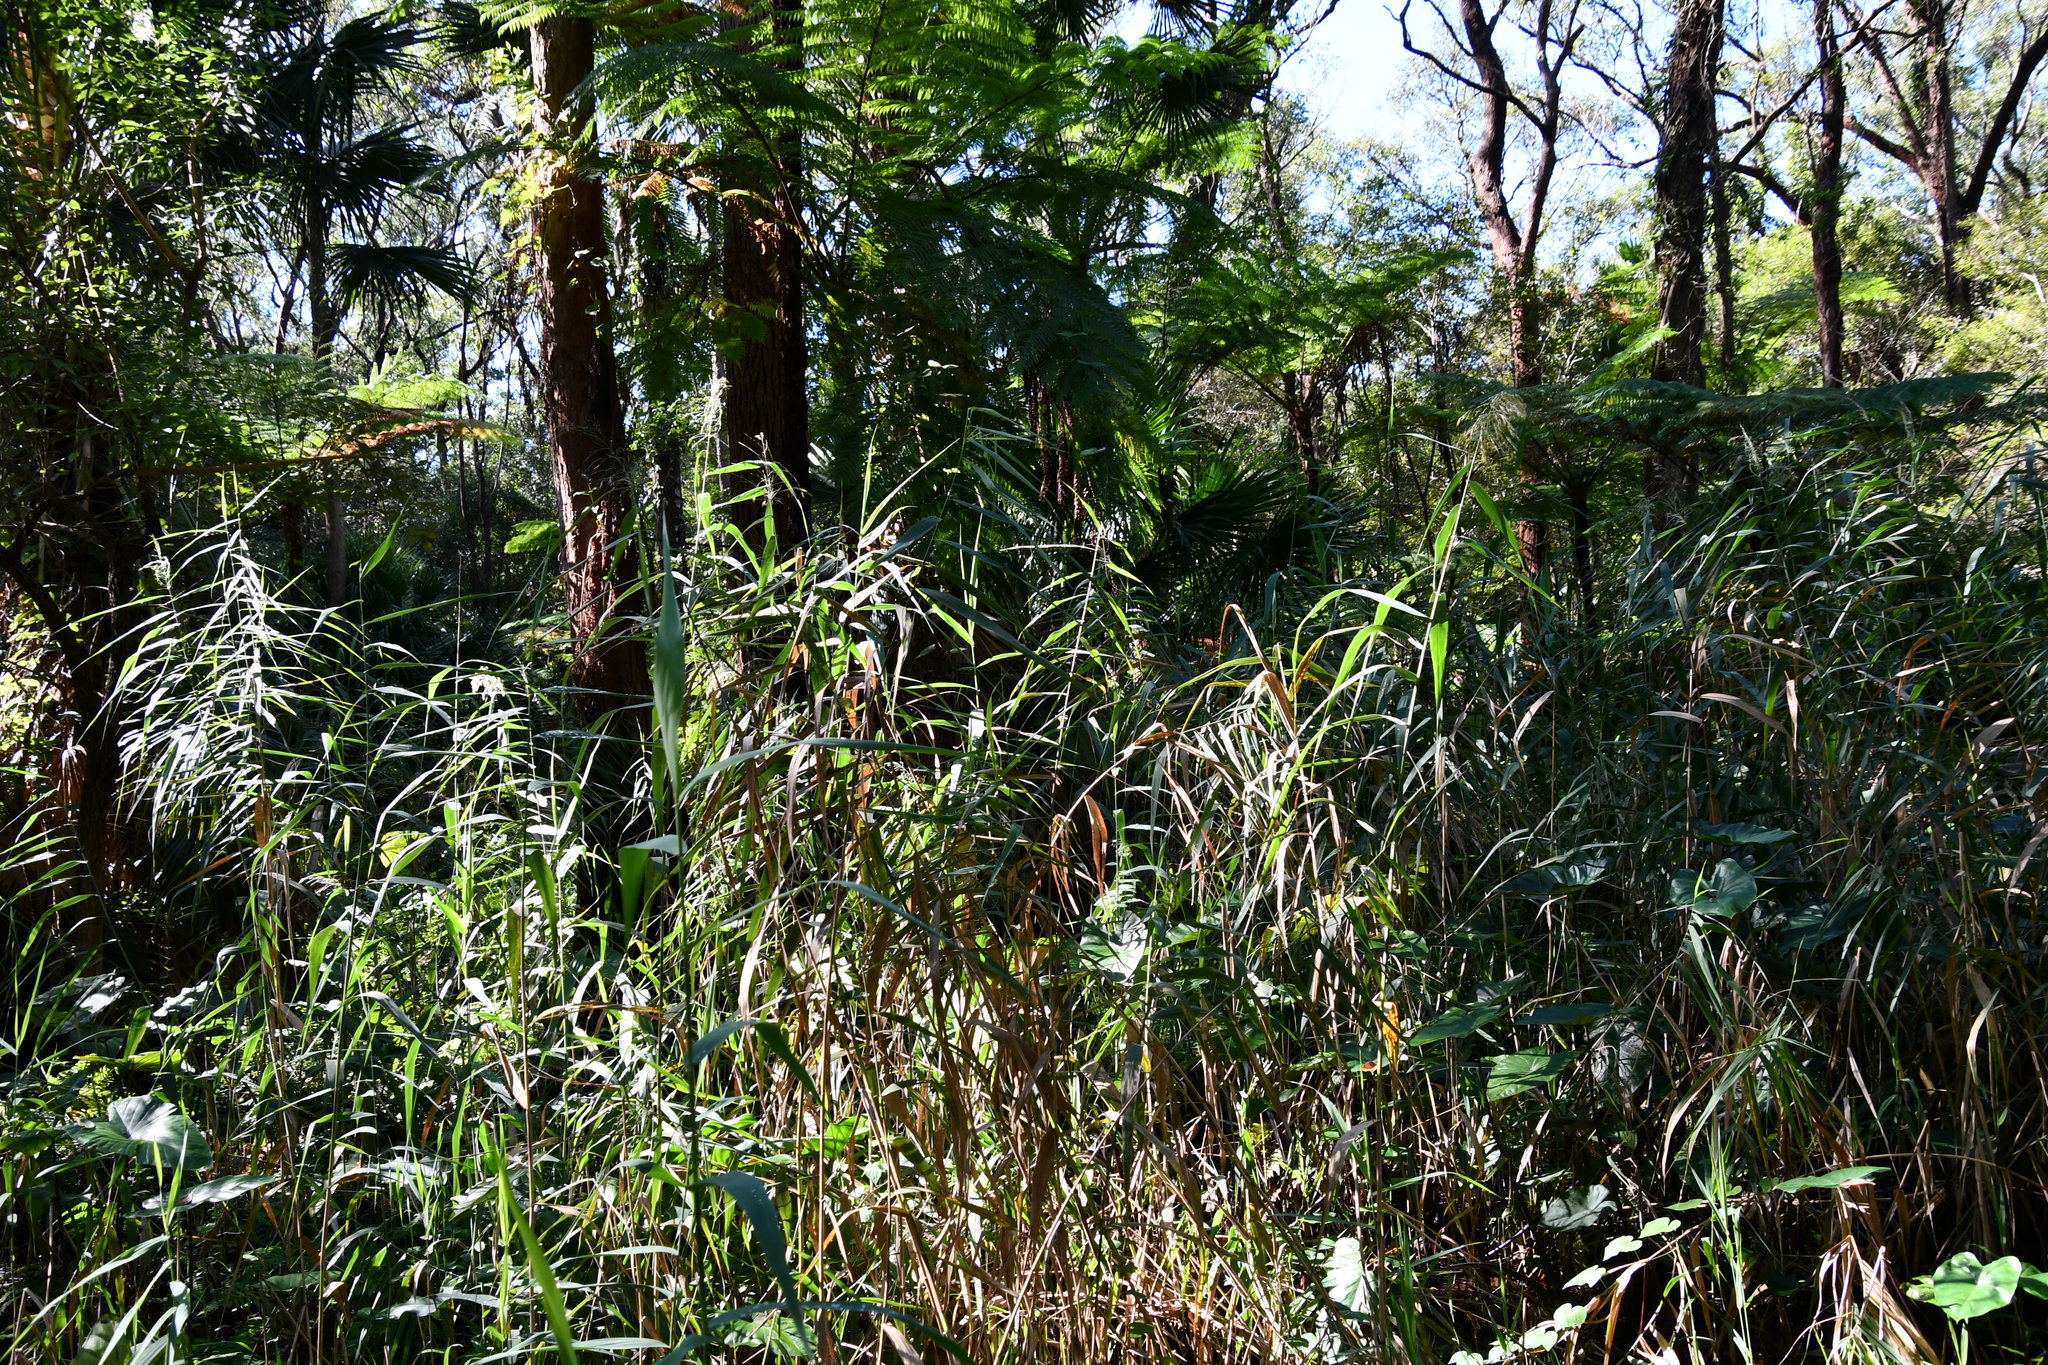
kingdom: Plantae
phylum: Tracheophyta
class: Liliopsida
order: Poales
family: Poaceae
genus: Phragmites
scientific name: Phragmites australis
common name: Common reed
